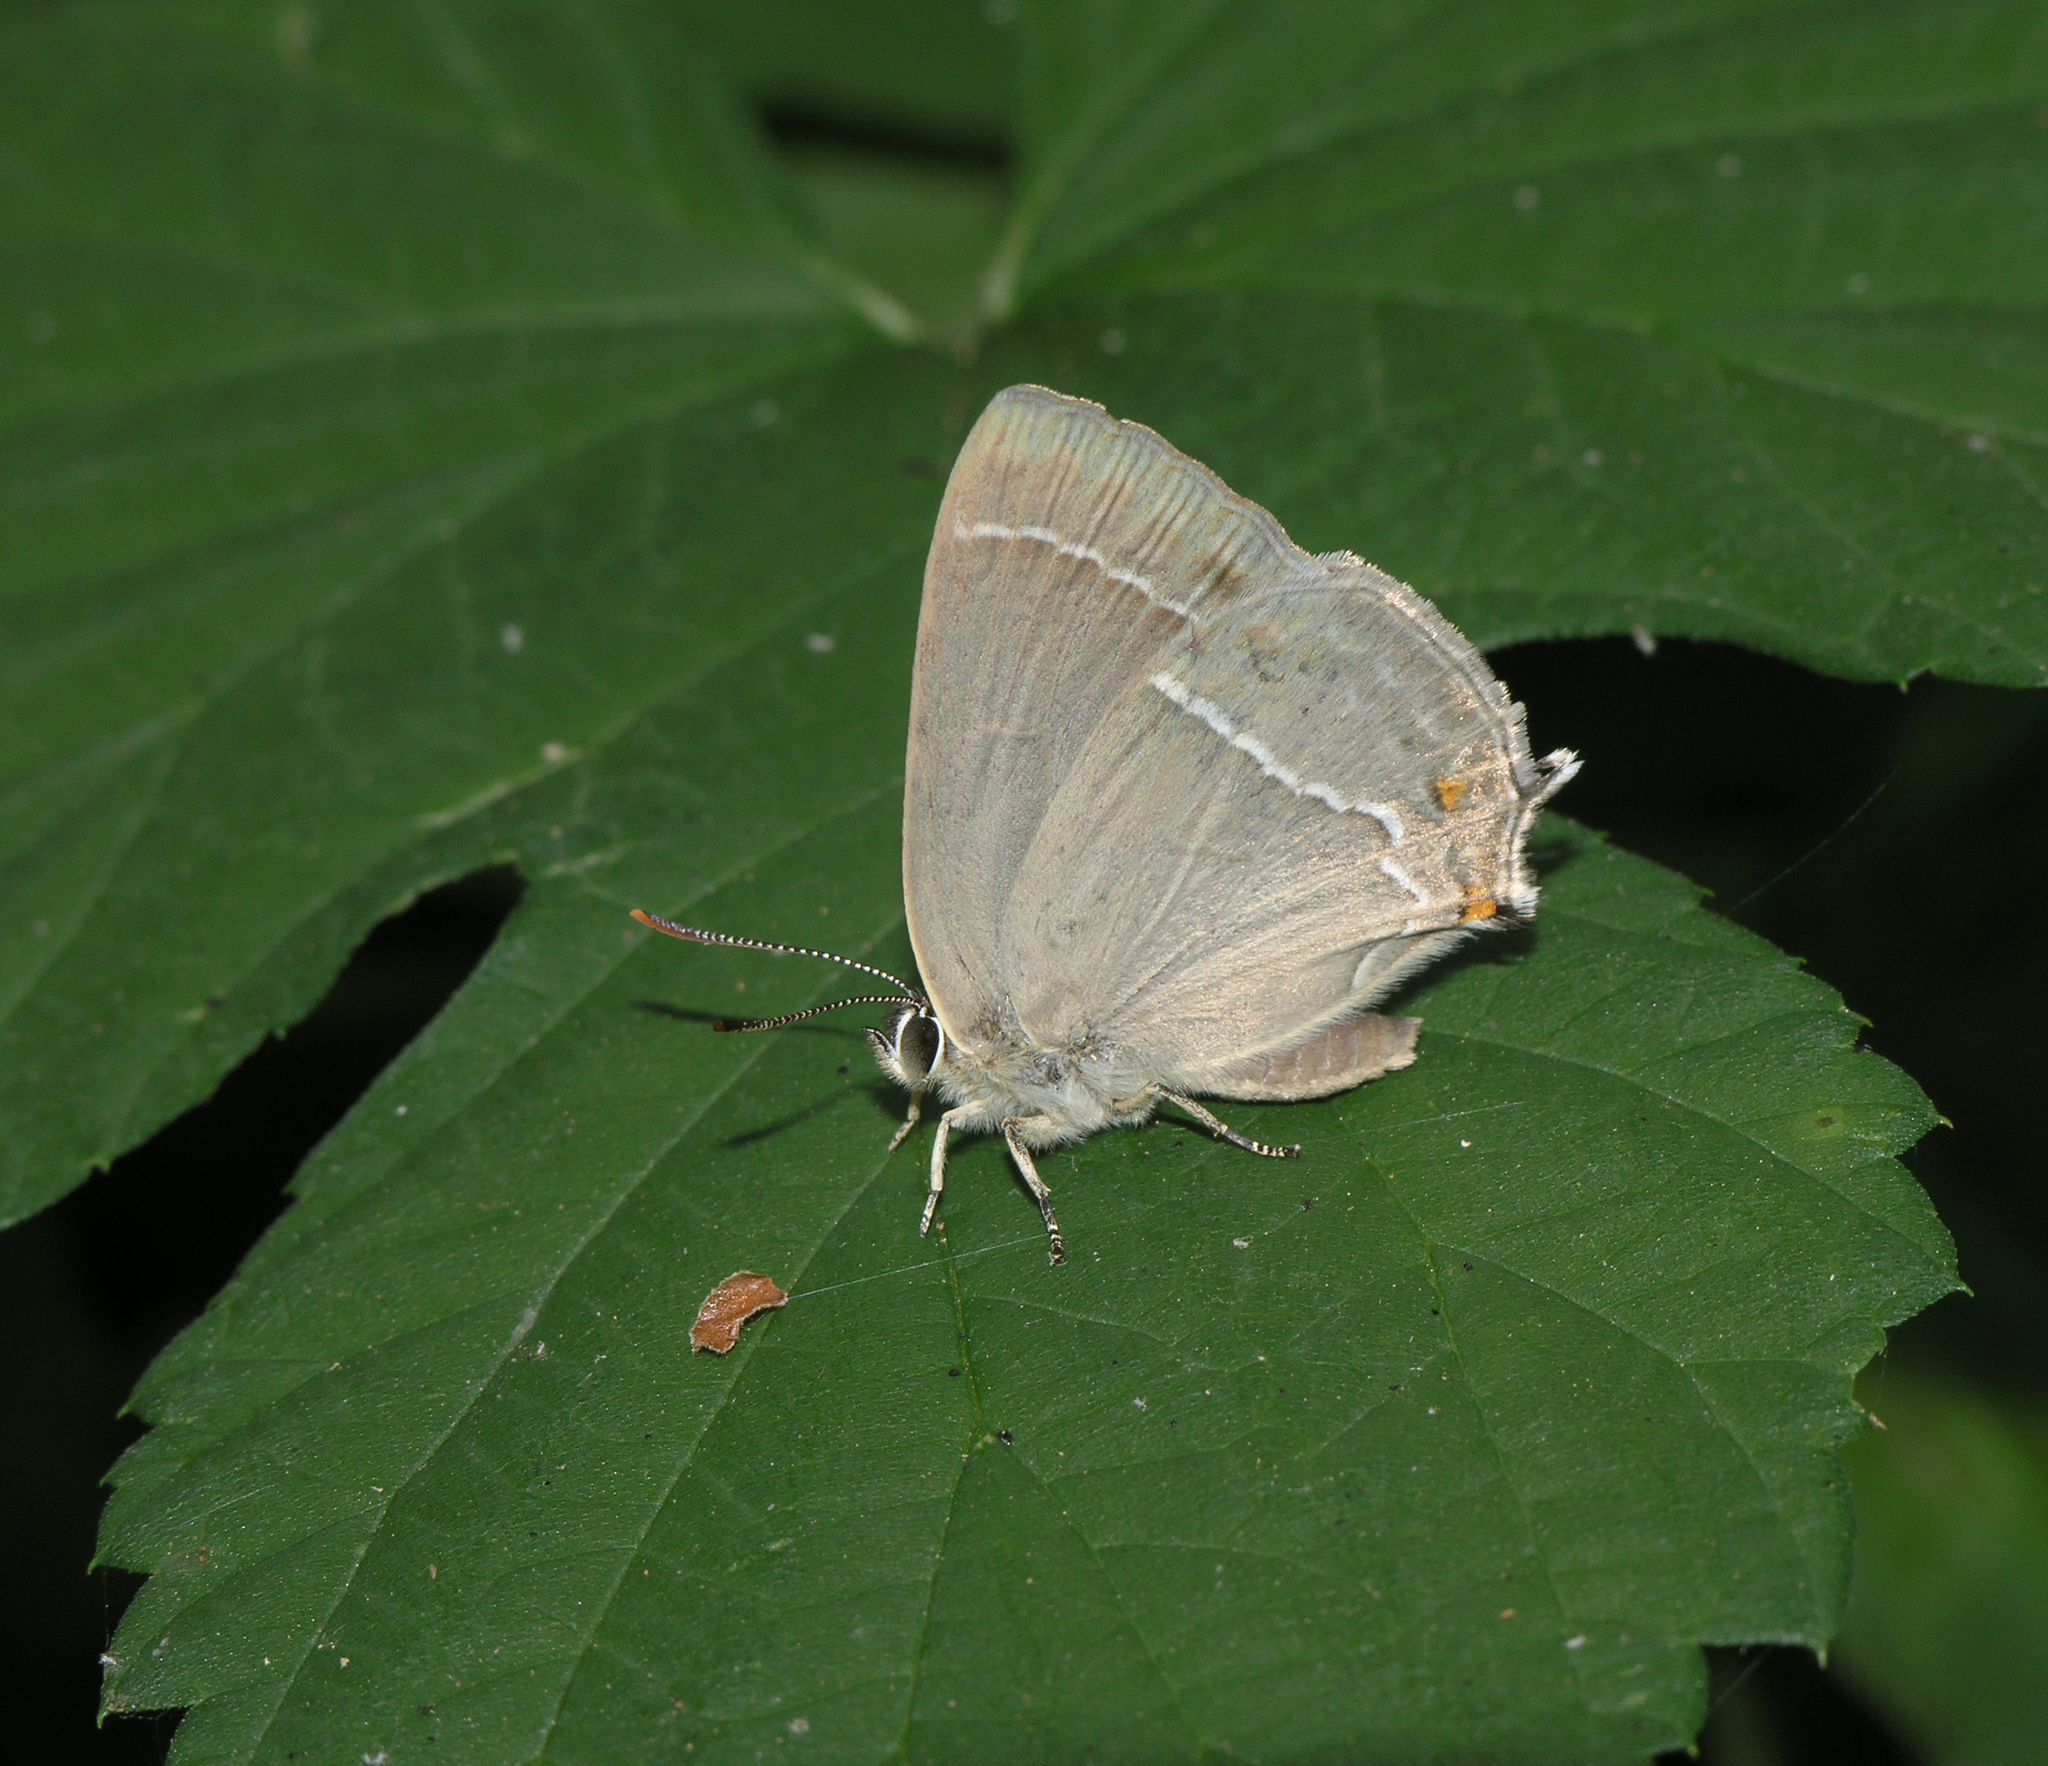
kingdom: Animalia
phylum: Arthropoda
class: Insecta
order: Lepidoptera
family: Lycaenidae
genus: Quercusia
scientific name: Quercusia quercus
